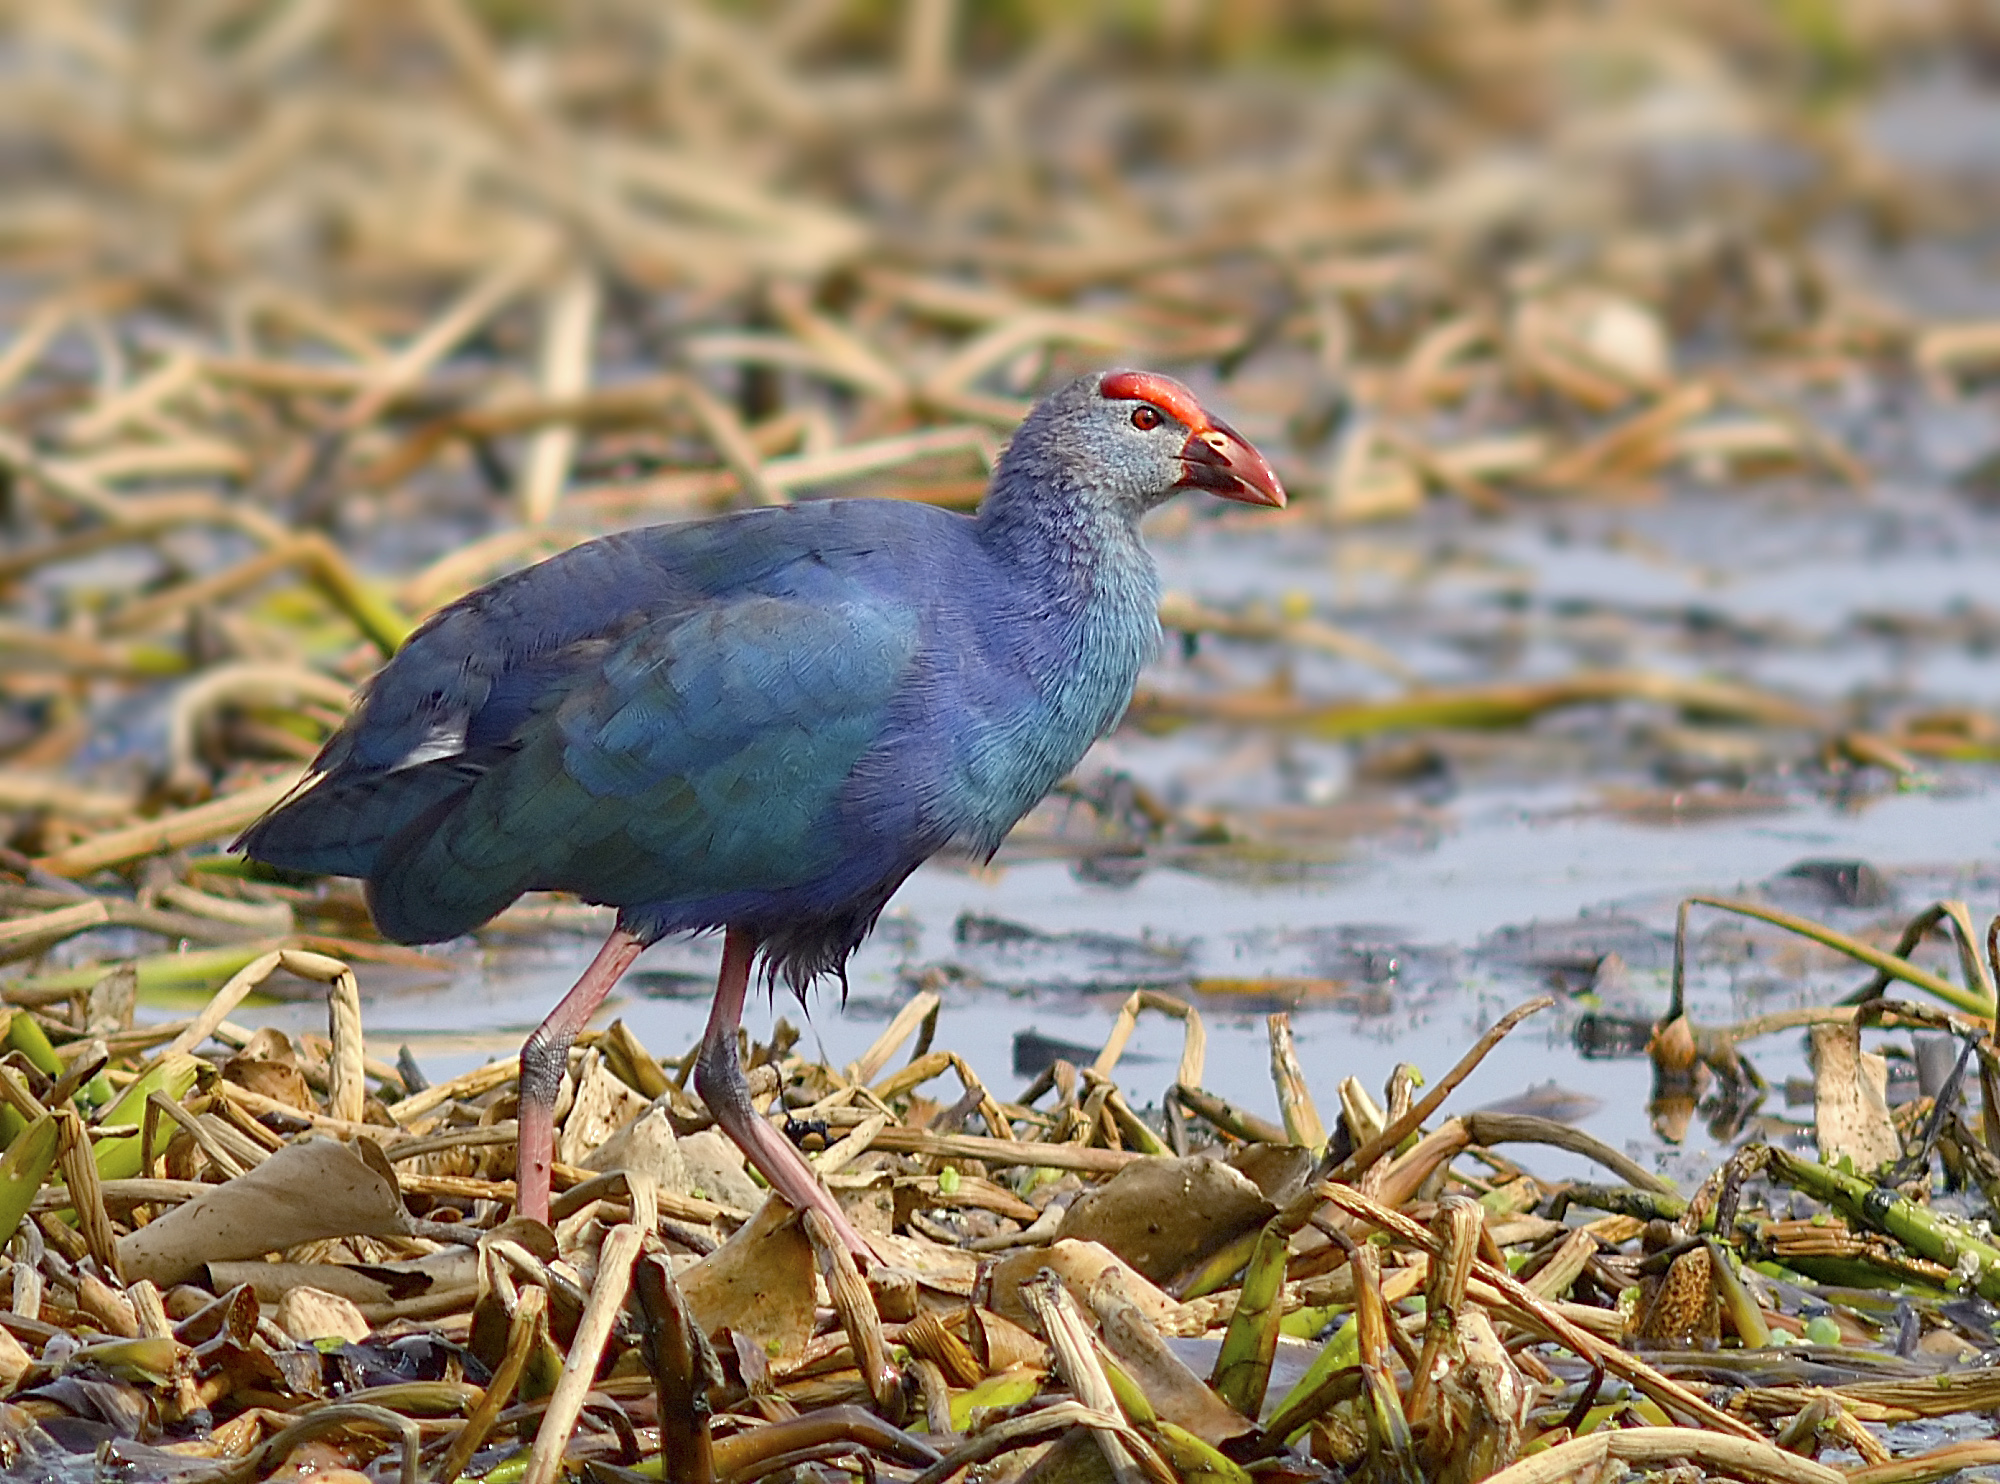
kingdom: Animalia
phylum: Chordata
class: Aves
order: Gruiformes
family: Rallidae
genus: Porphyrio
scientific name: Porphyrio porphyrio
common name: Purple swamphen
